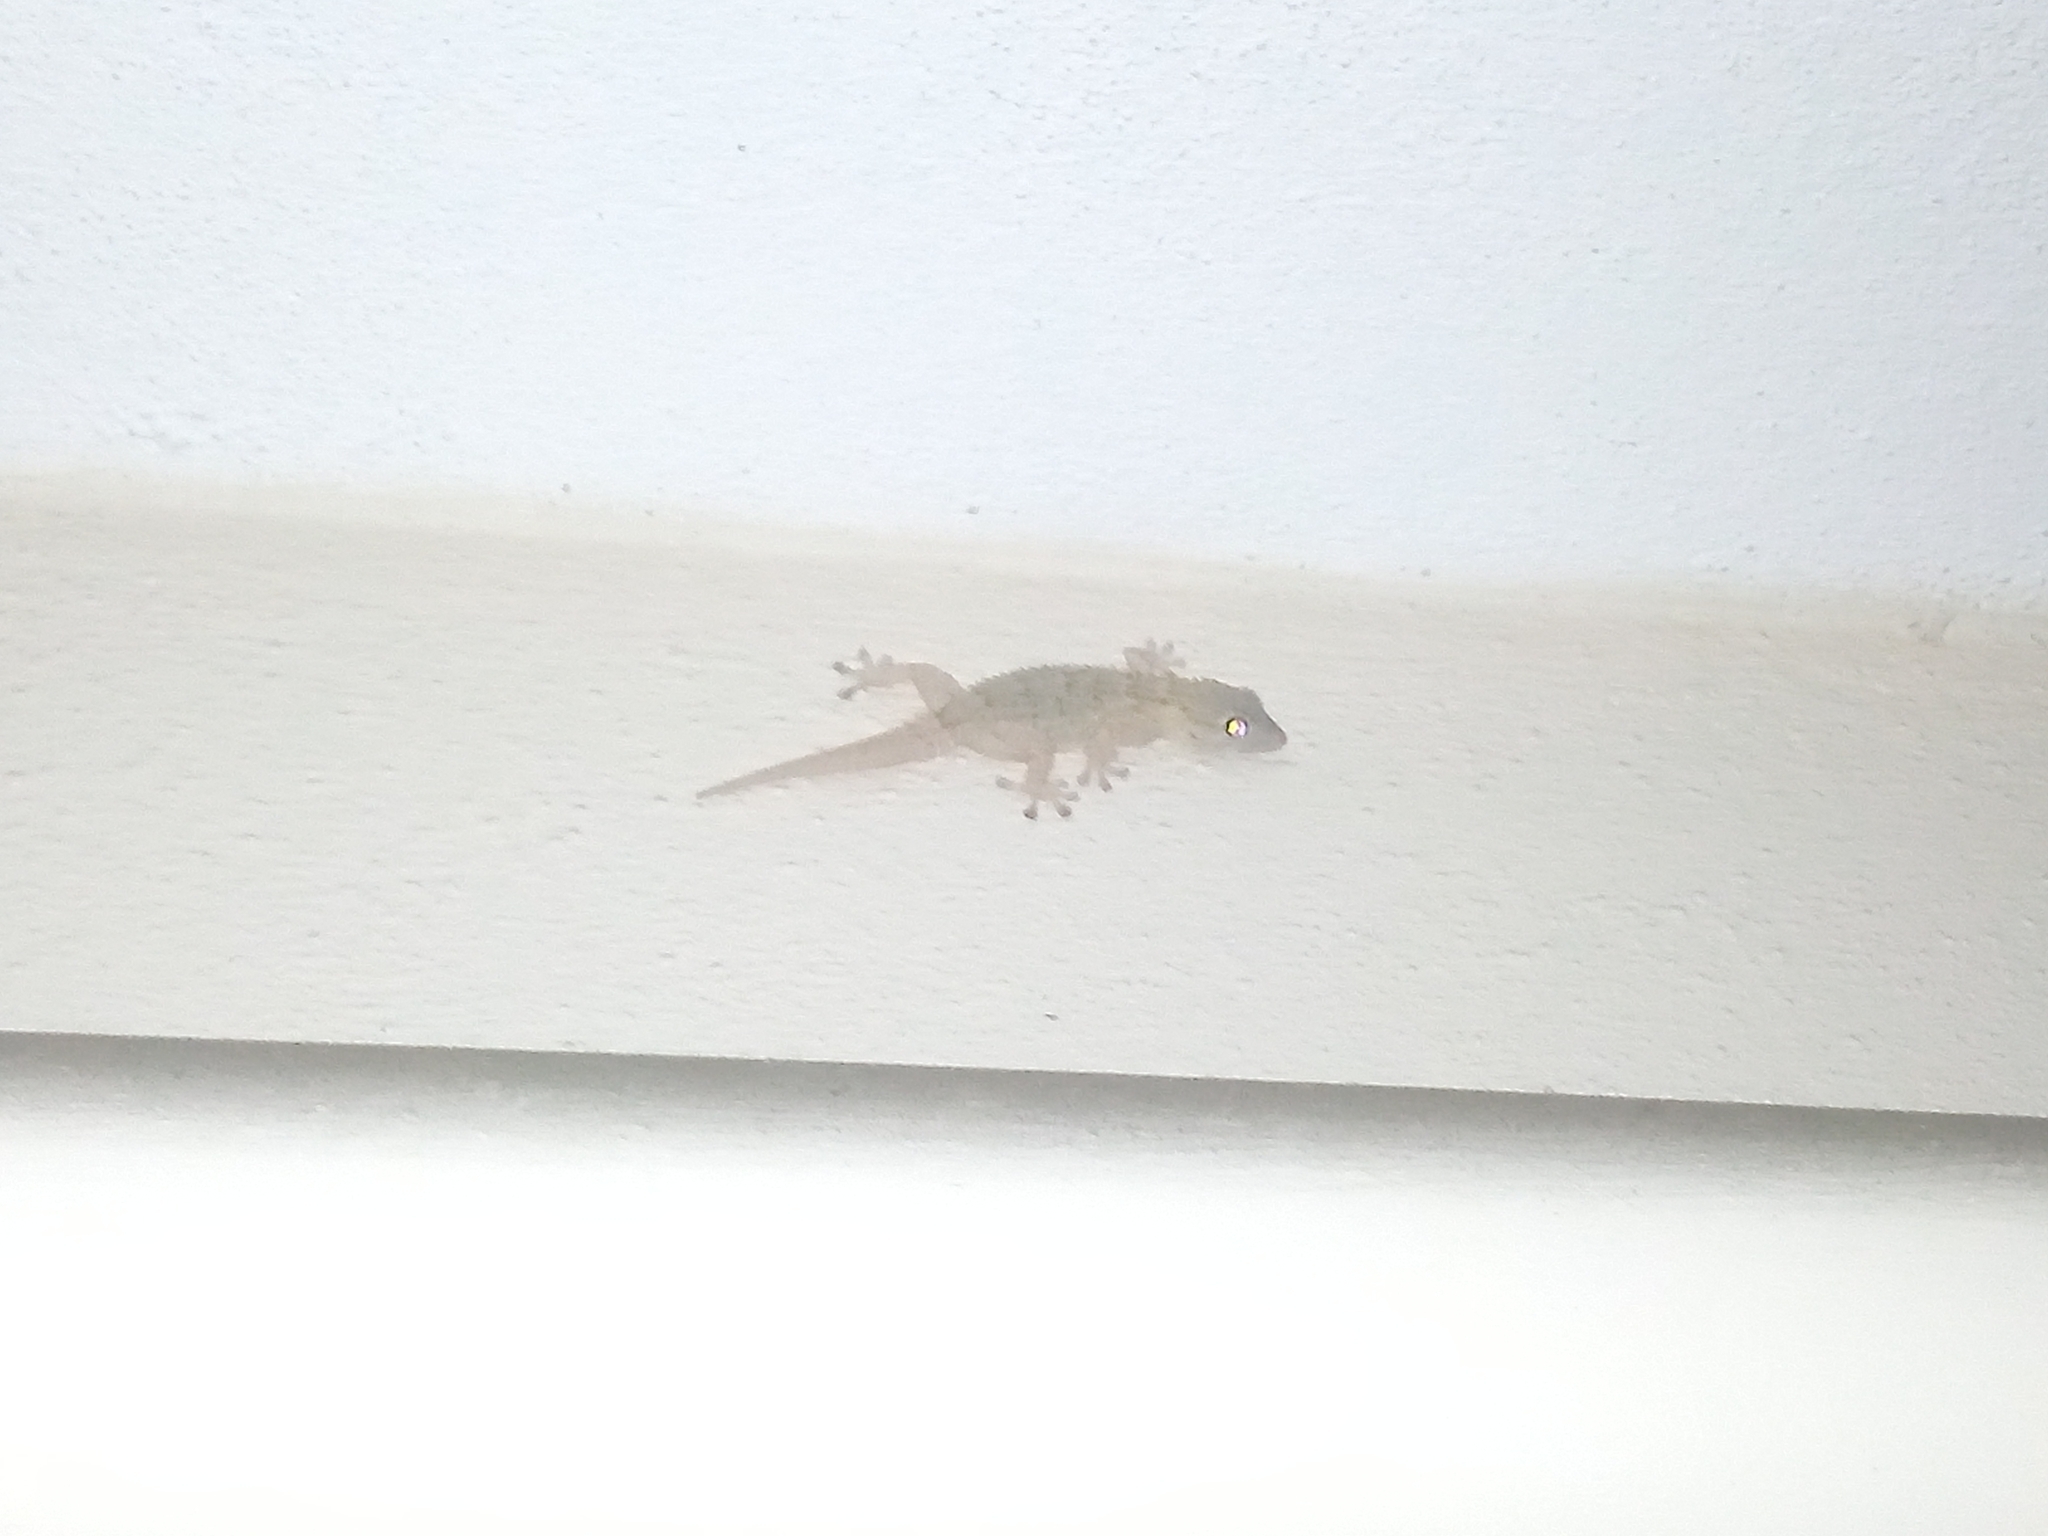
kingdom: Animalia
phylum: Chordata
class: Squamata
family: Phyllodactylidae
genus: Tarentola
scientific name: Tarentola mauritanica
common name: Moorish gecko
